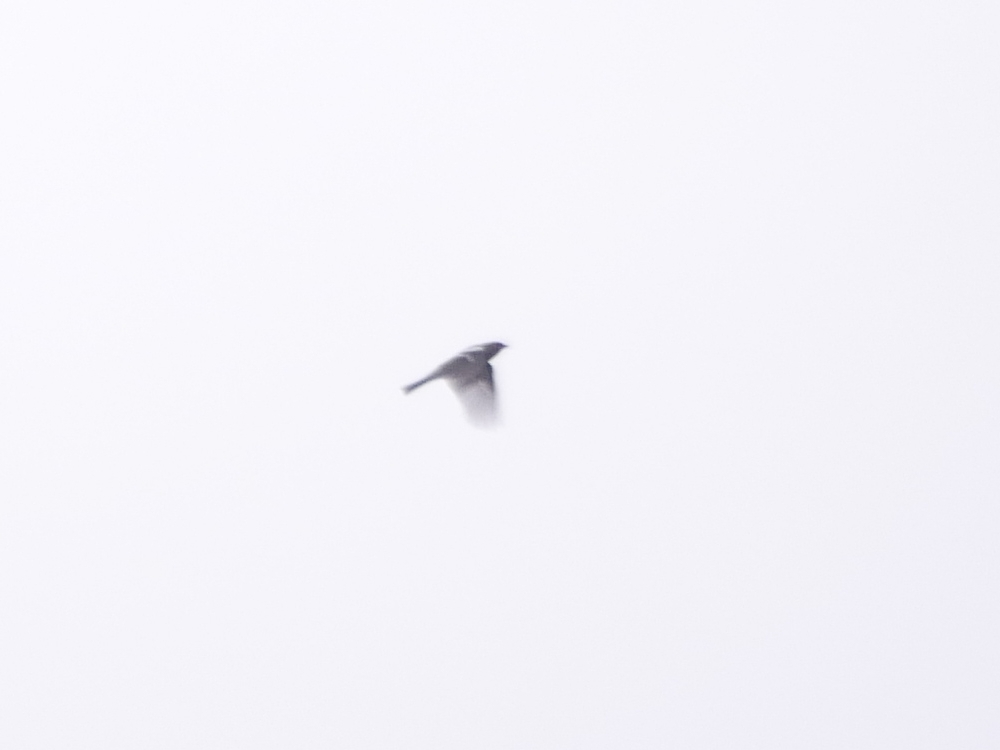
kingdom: Animalia
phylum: Chordata
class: Aves
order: Passeriformes
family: Fringillidae
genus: Fringilla
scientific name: Fringilla coelebs
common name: Common chaffinch
